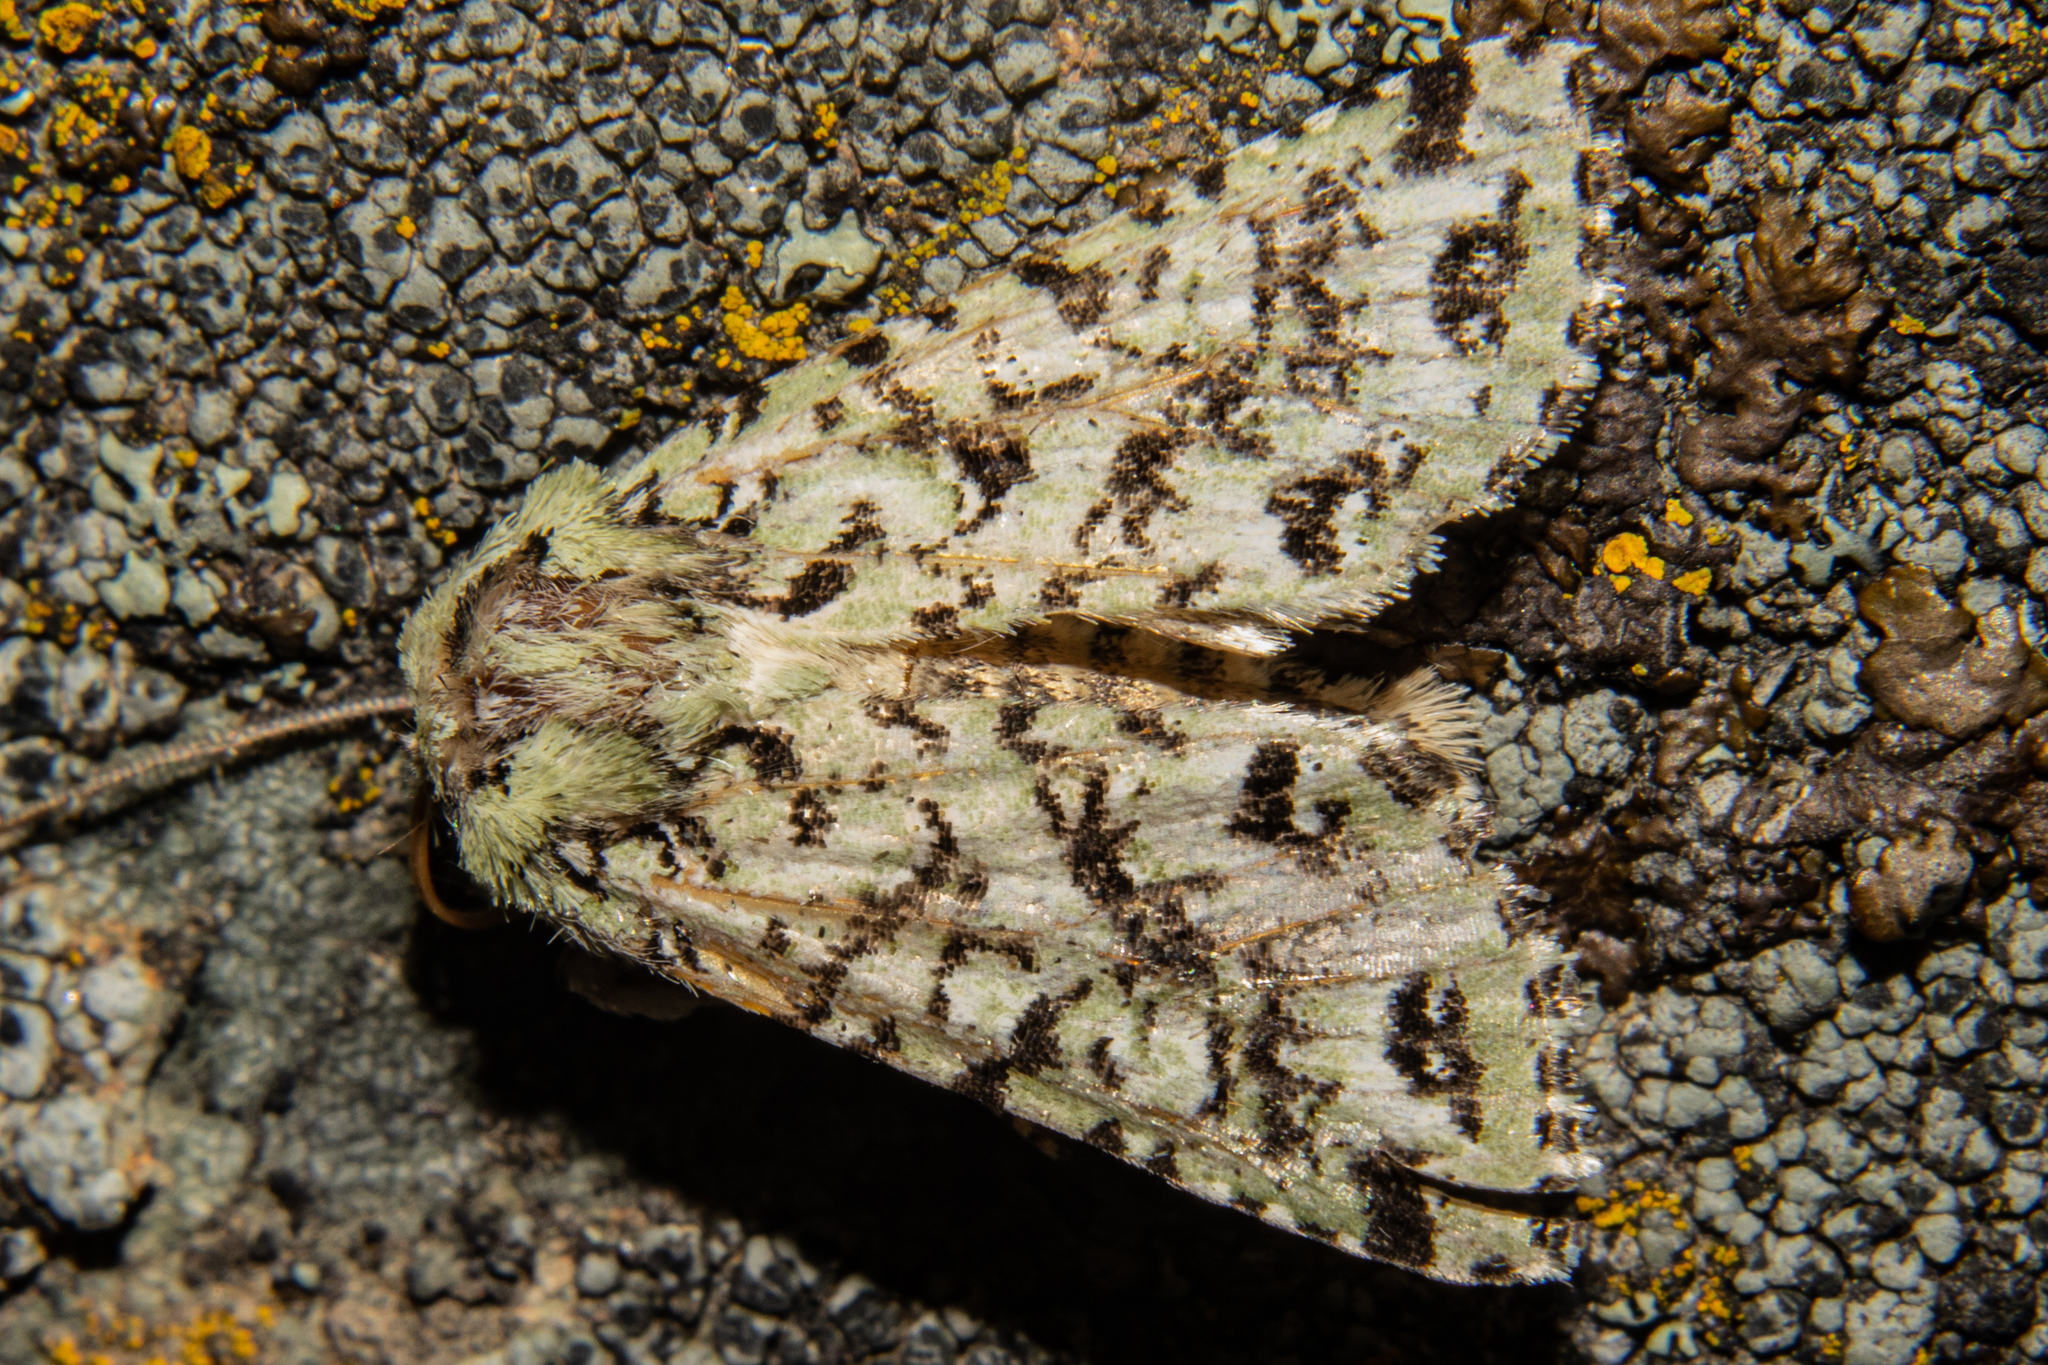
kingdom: Animalia
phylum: Arthropoda
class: Insecta
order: Lepidoptera
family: Noctuidae
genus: Meterana
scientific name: Meterana
